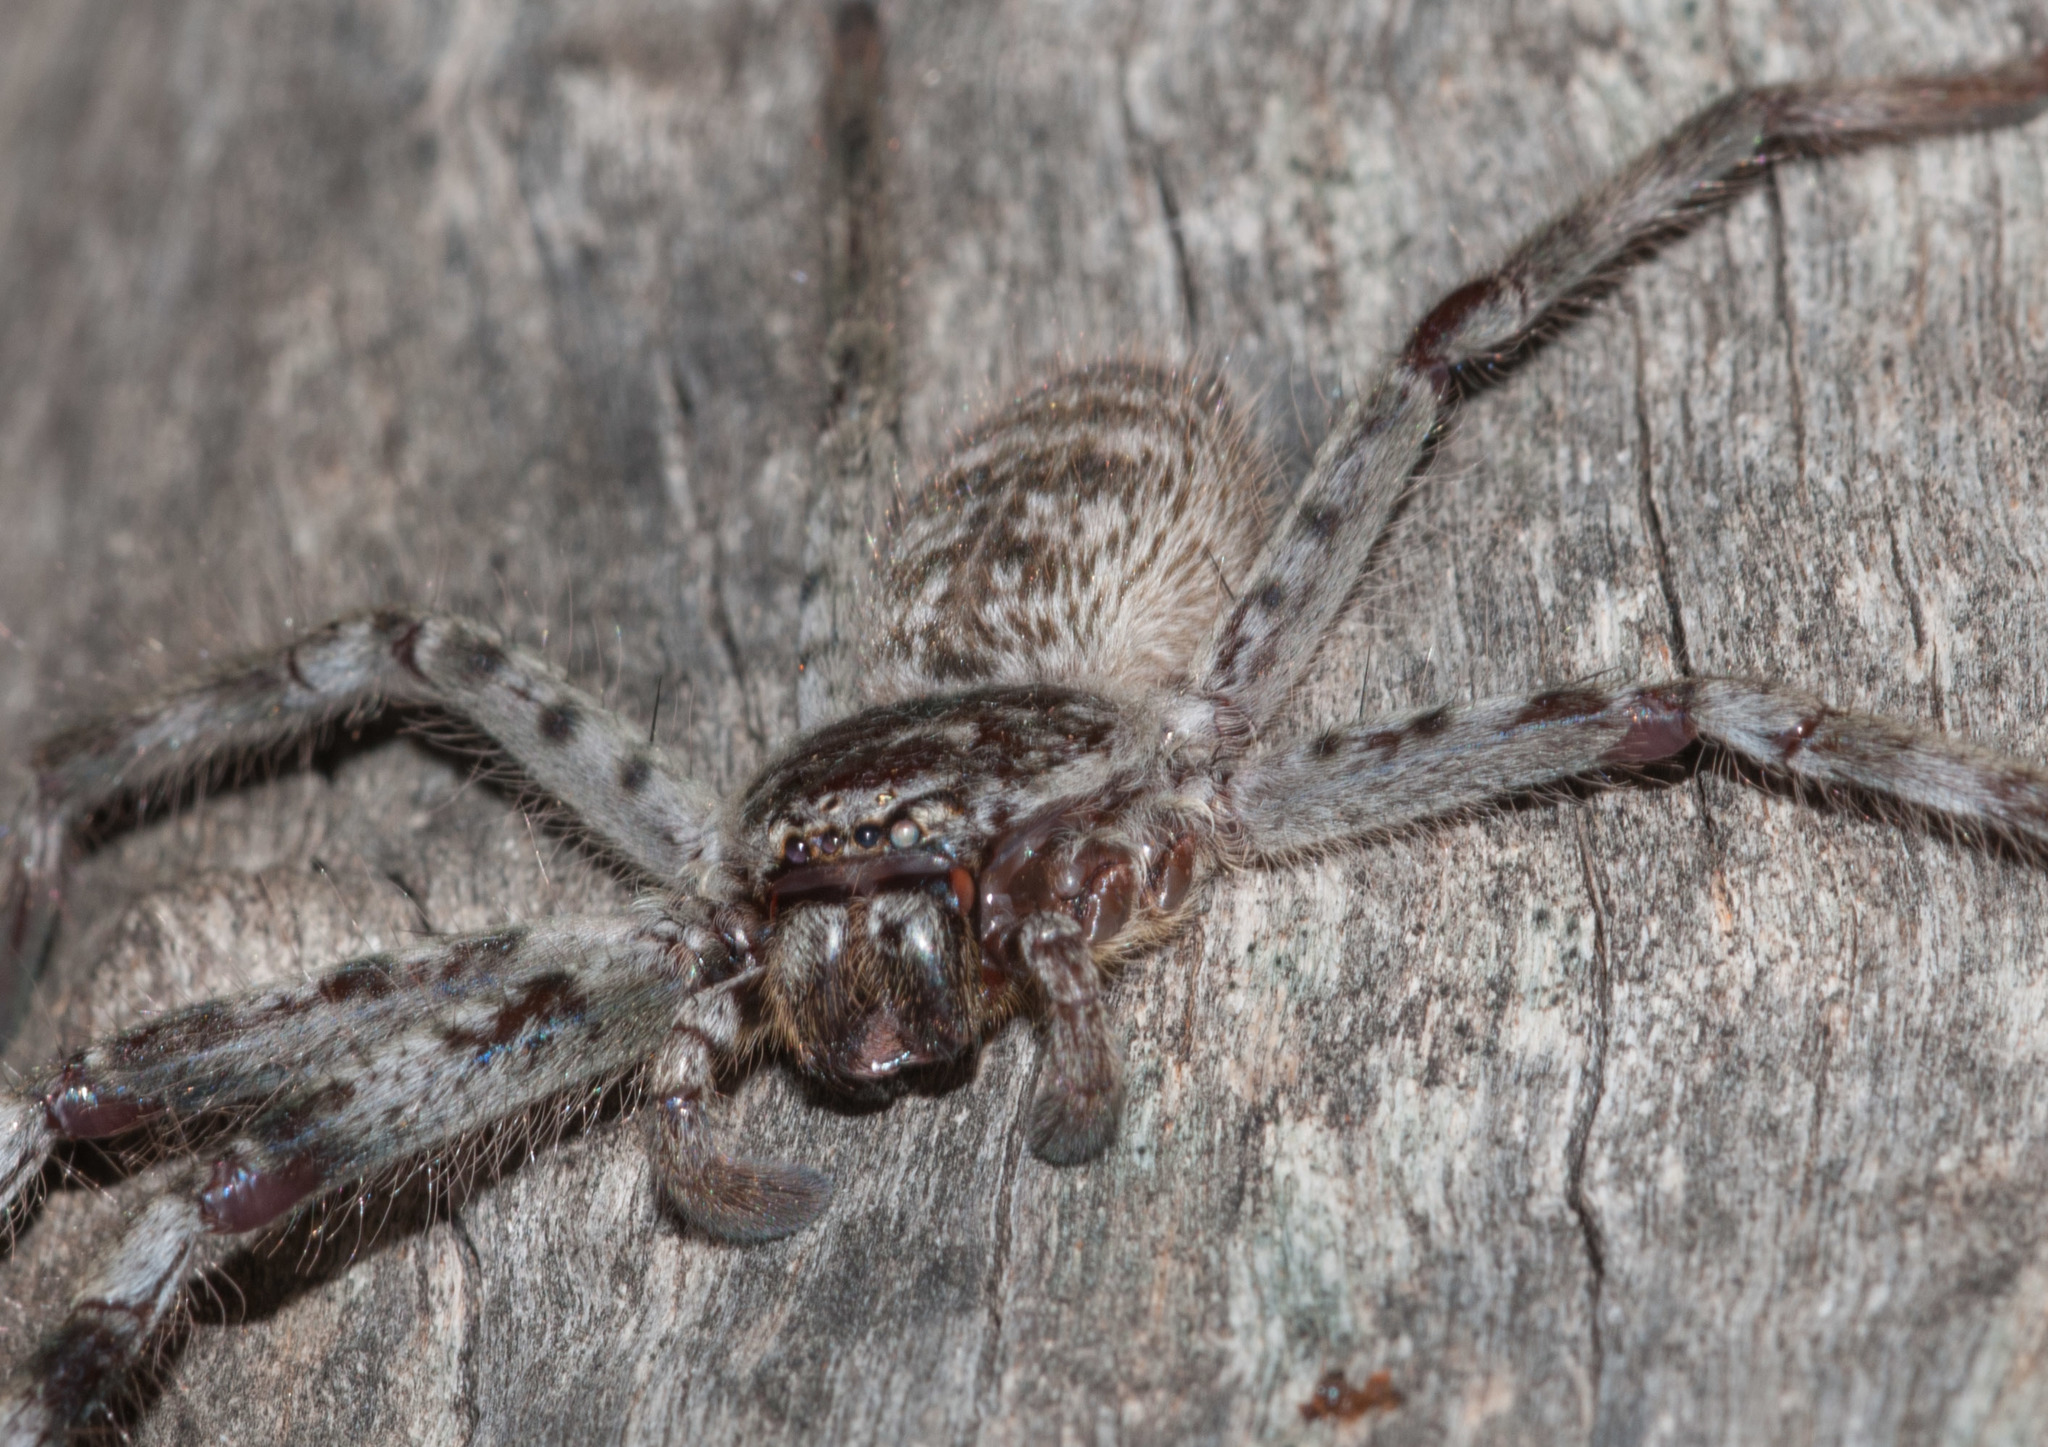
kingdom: Animalia
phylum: Arthropoda
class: Arachnida
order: Araneae
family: Sparassidae
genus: Holconia
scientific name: Holconia flindersi
